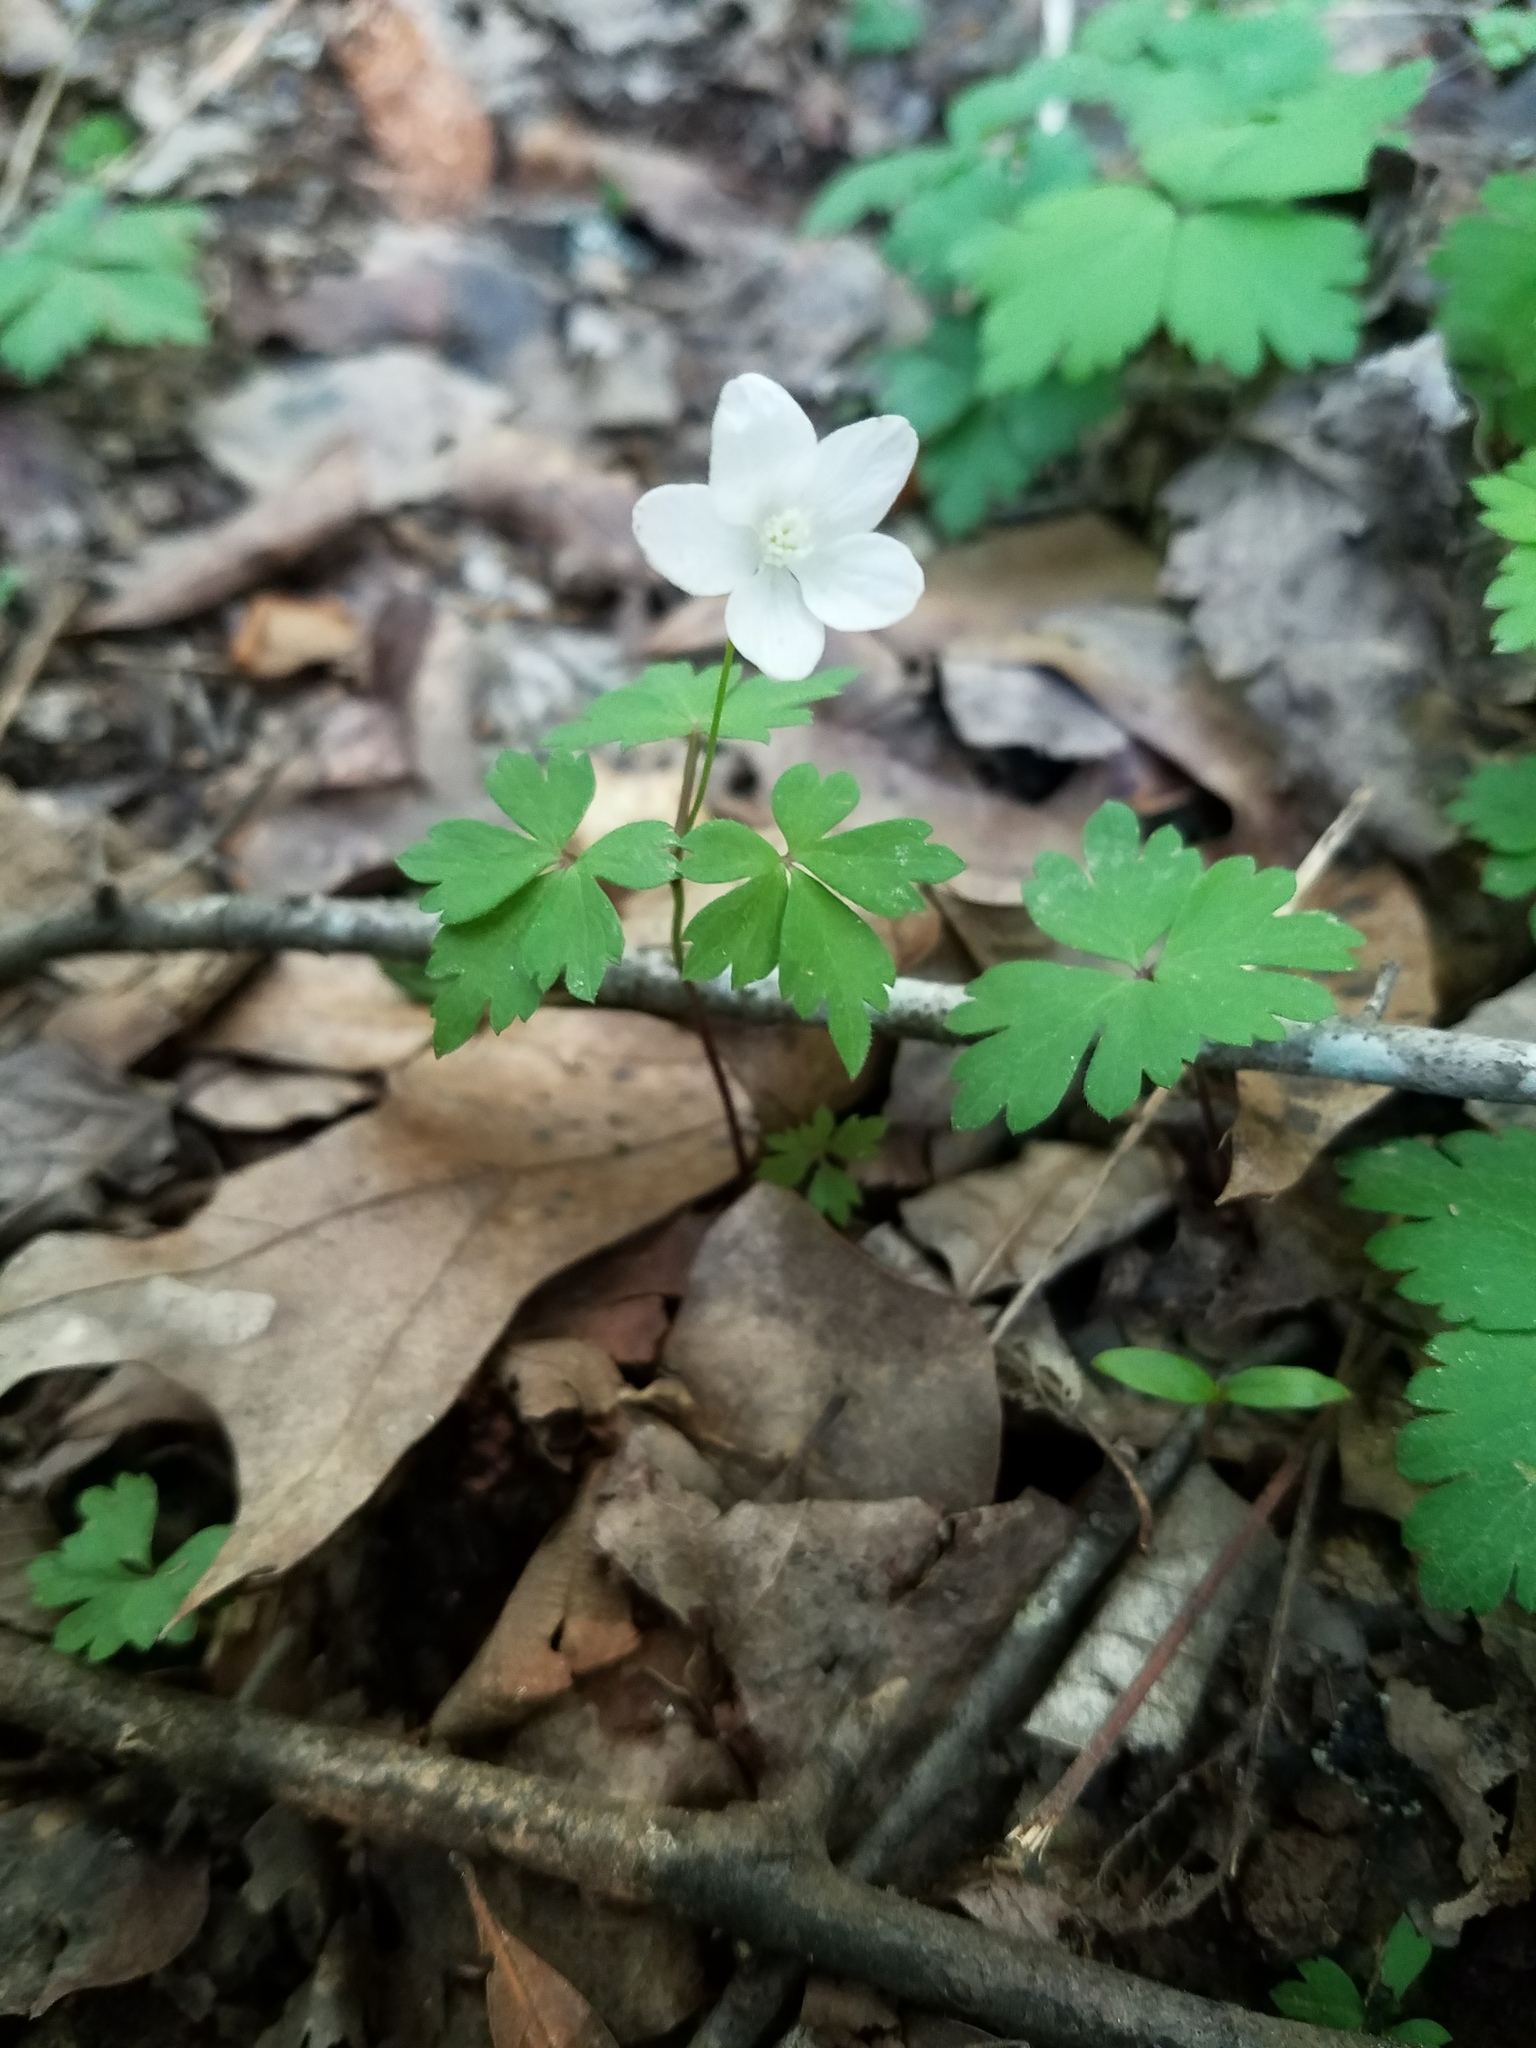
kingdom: Plantae
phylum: Tracheophyta
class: Magnoliopsida
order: Ranunculales
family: Ranunculaceae
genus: Anemone
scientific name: Anemone quinquefolia
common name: Wood anemone
